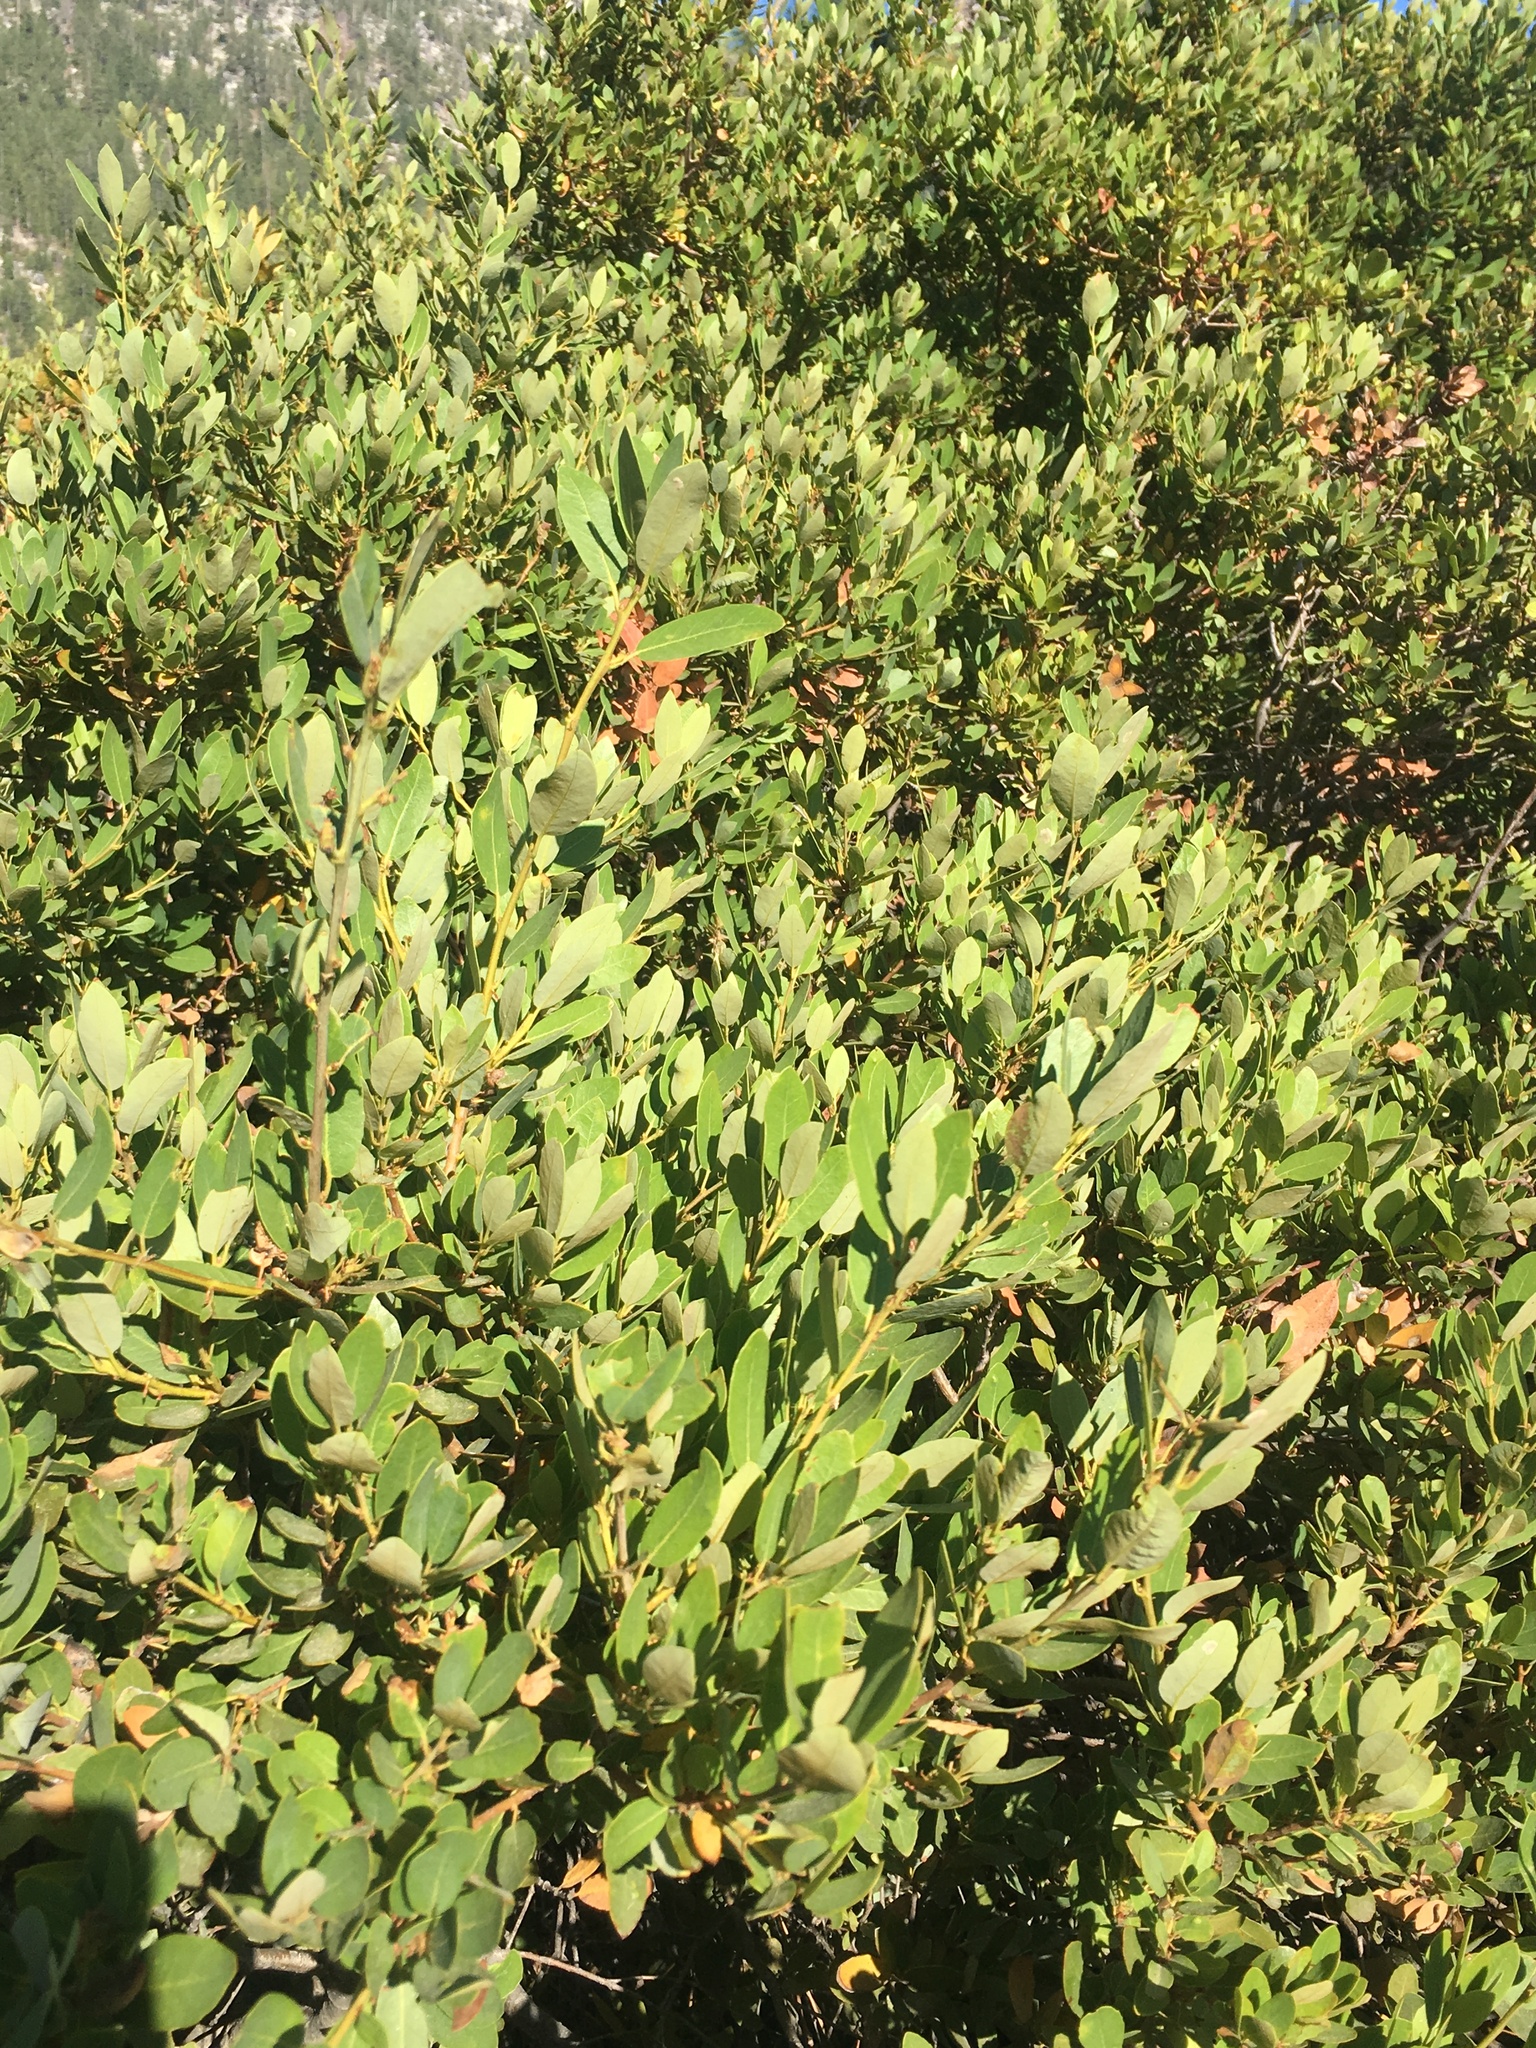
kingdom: Plantae
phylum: Tracheophyta
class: Magnoliopsida
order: Fagales
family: Fagaceae
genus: Quercus
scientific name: Quercus vacciniifolia
